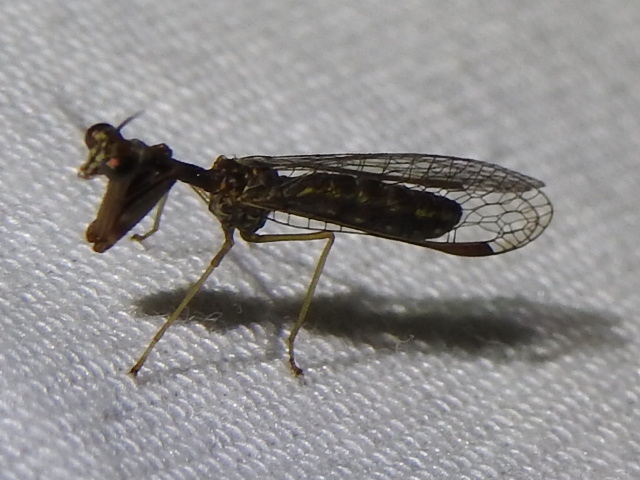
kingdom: Animalia
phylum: Arthropoda
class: Insecta
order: Neuroptera
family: Mantispidae
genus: Leptomantispa
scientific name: Leptomantispa pulchella
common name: Stevens's mantidfly
